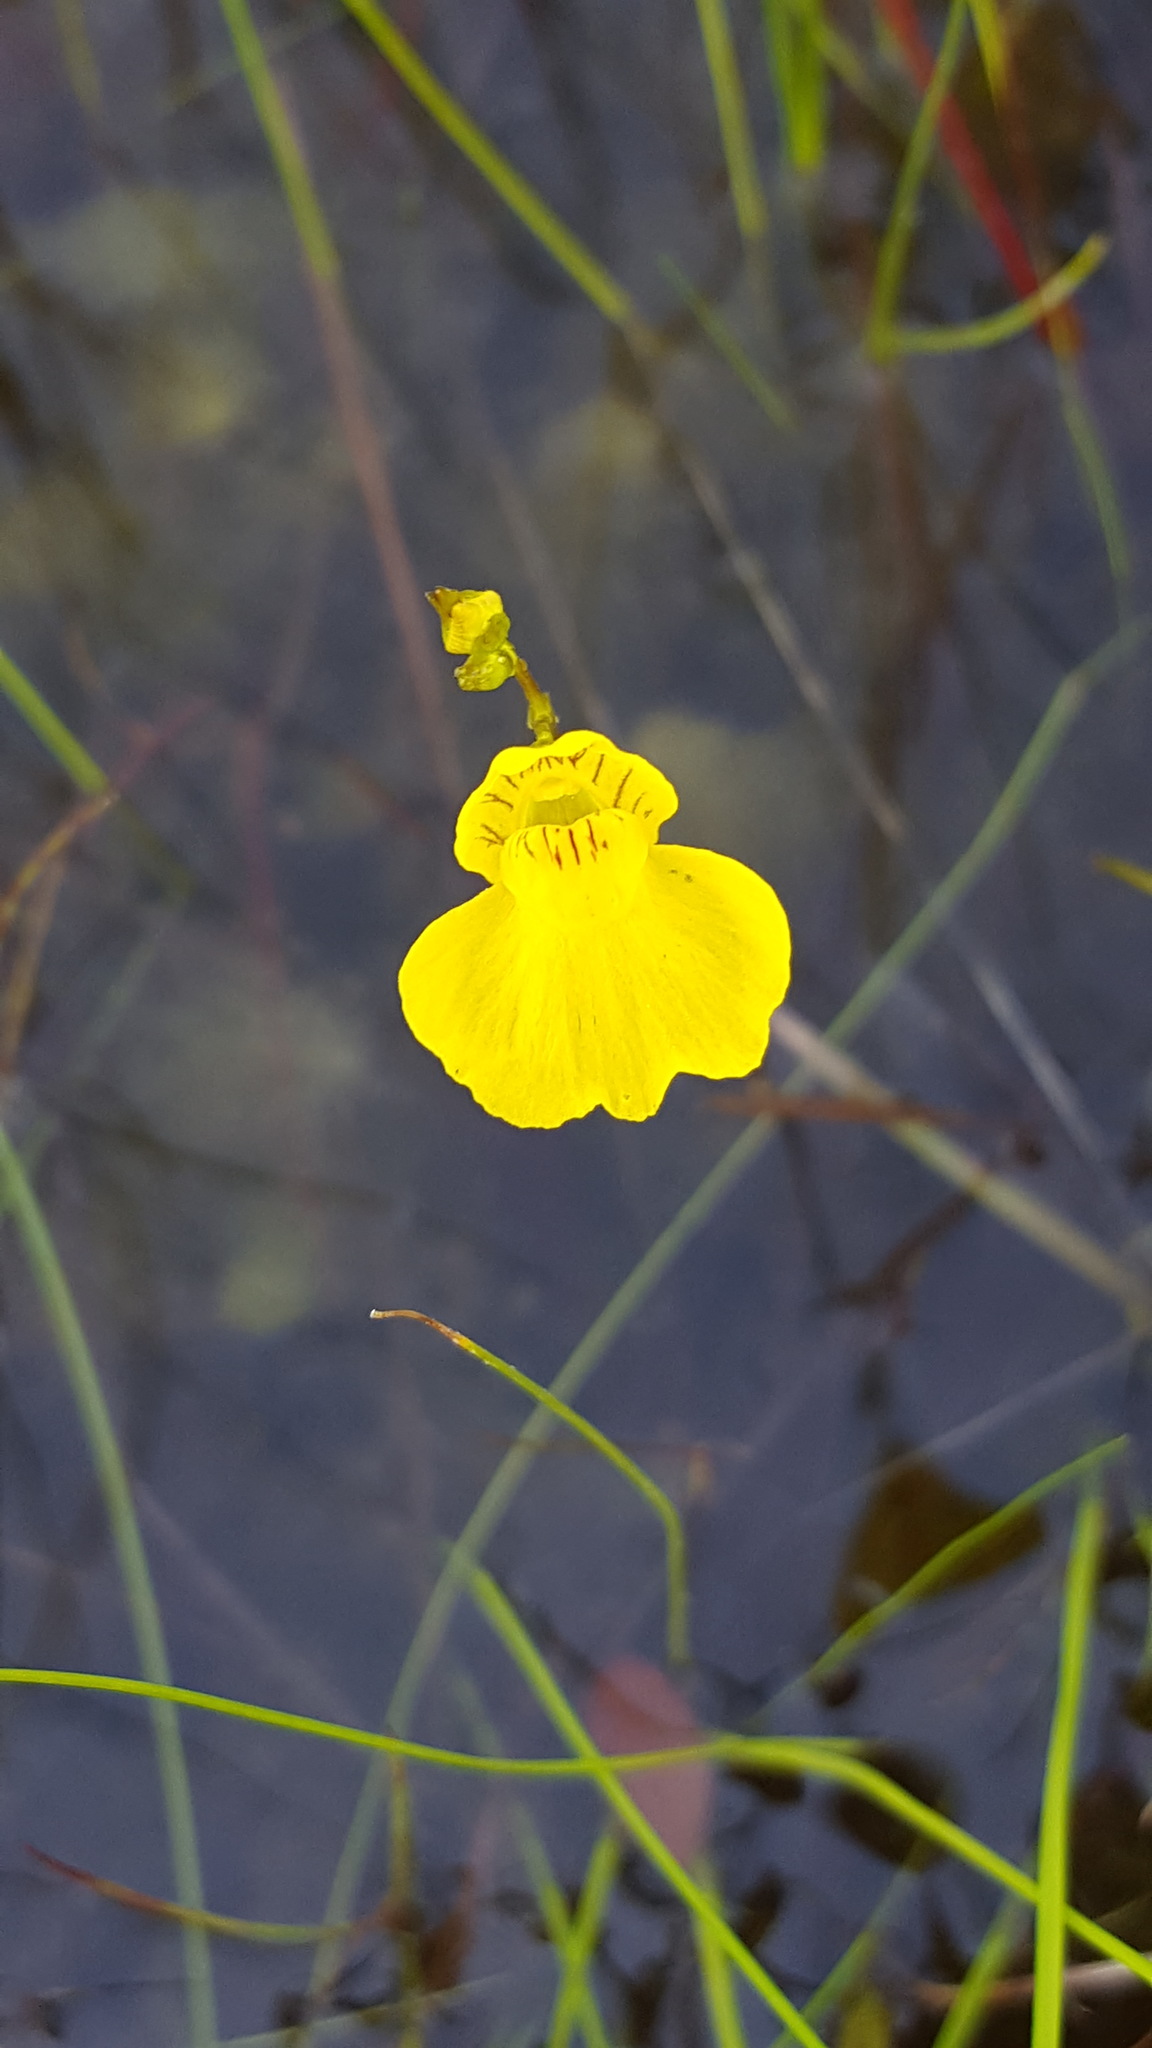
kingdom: Plantae
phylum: Tracheophyta
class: Magnoliopsida
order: Lamiales
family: Lentibulariaceae
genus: Utricularia
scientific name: Utricularia intermedia
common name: Intermediate bladderwort
